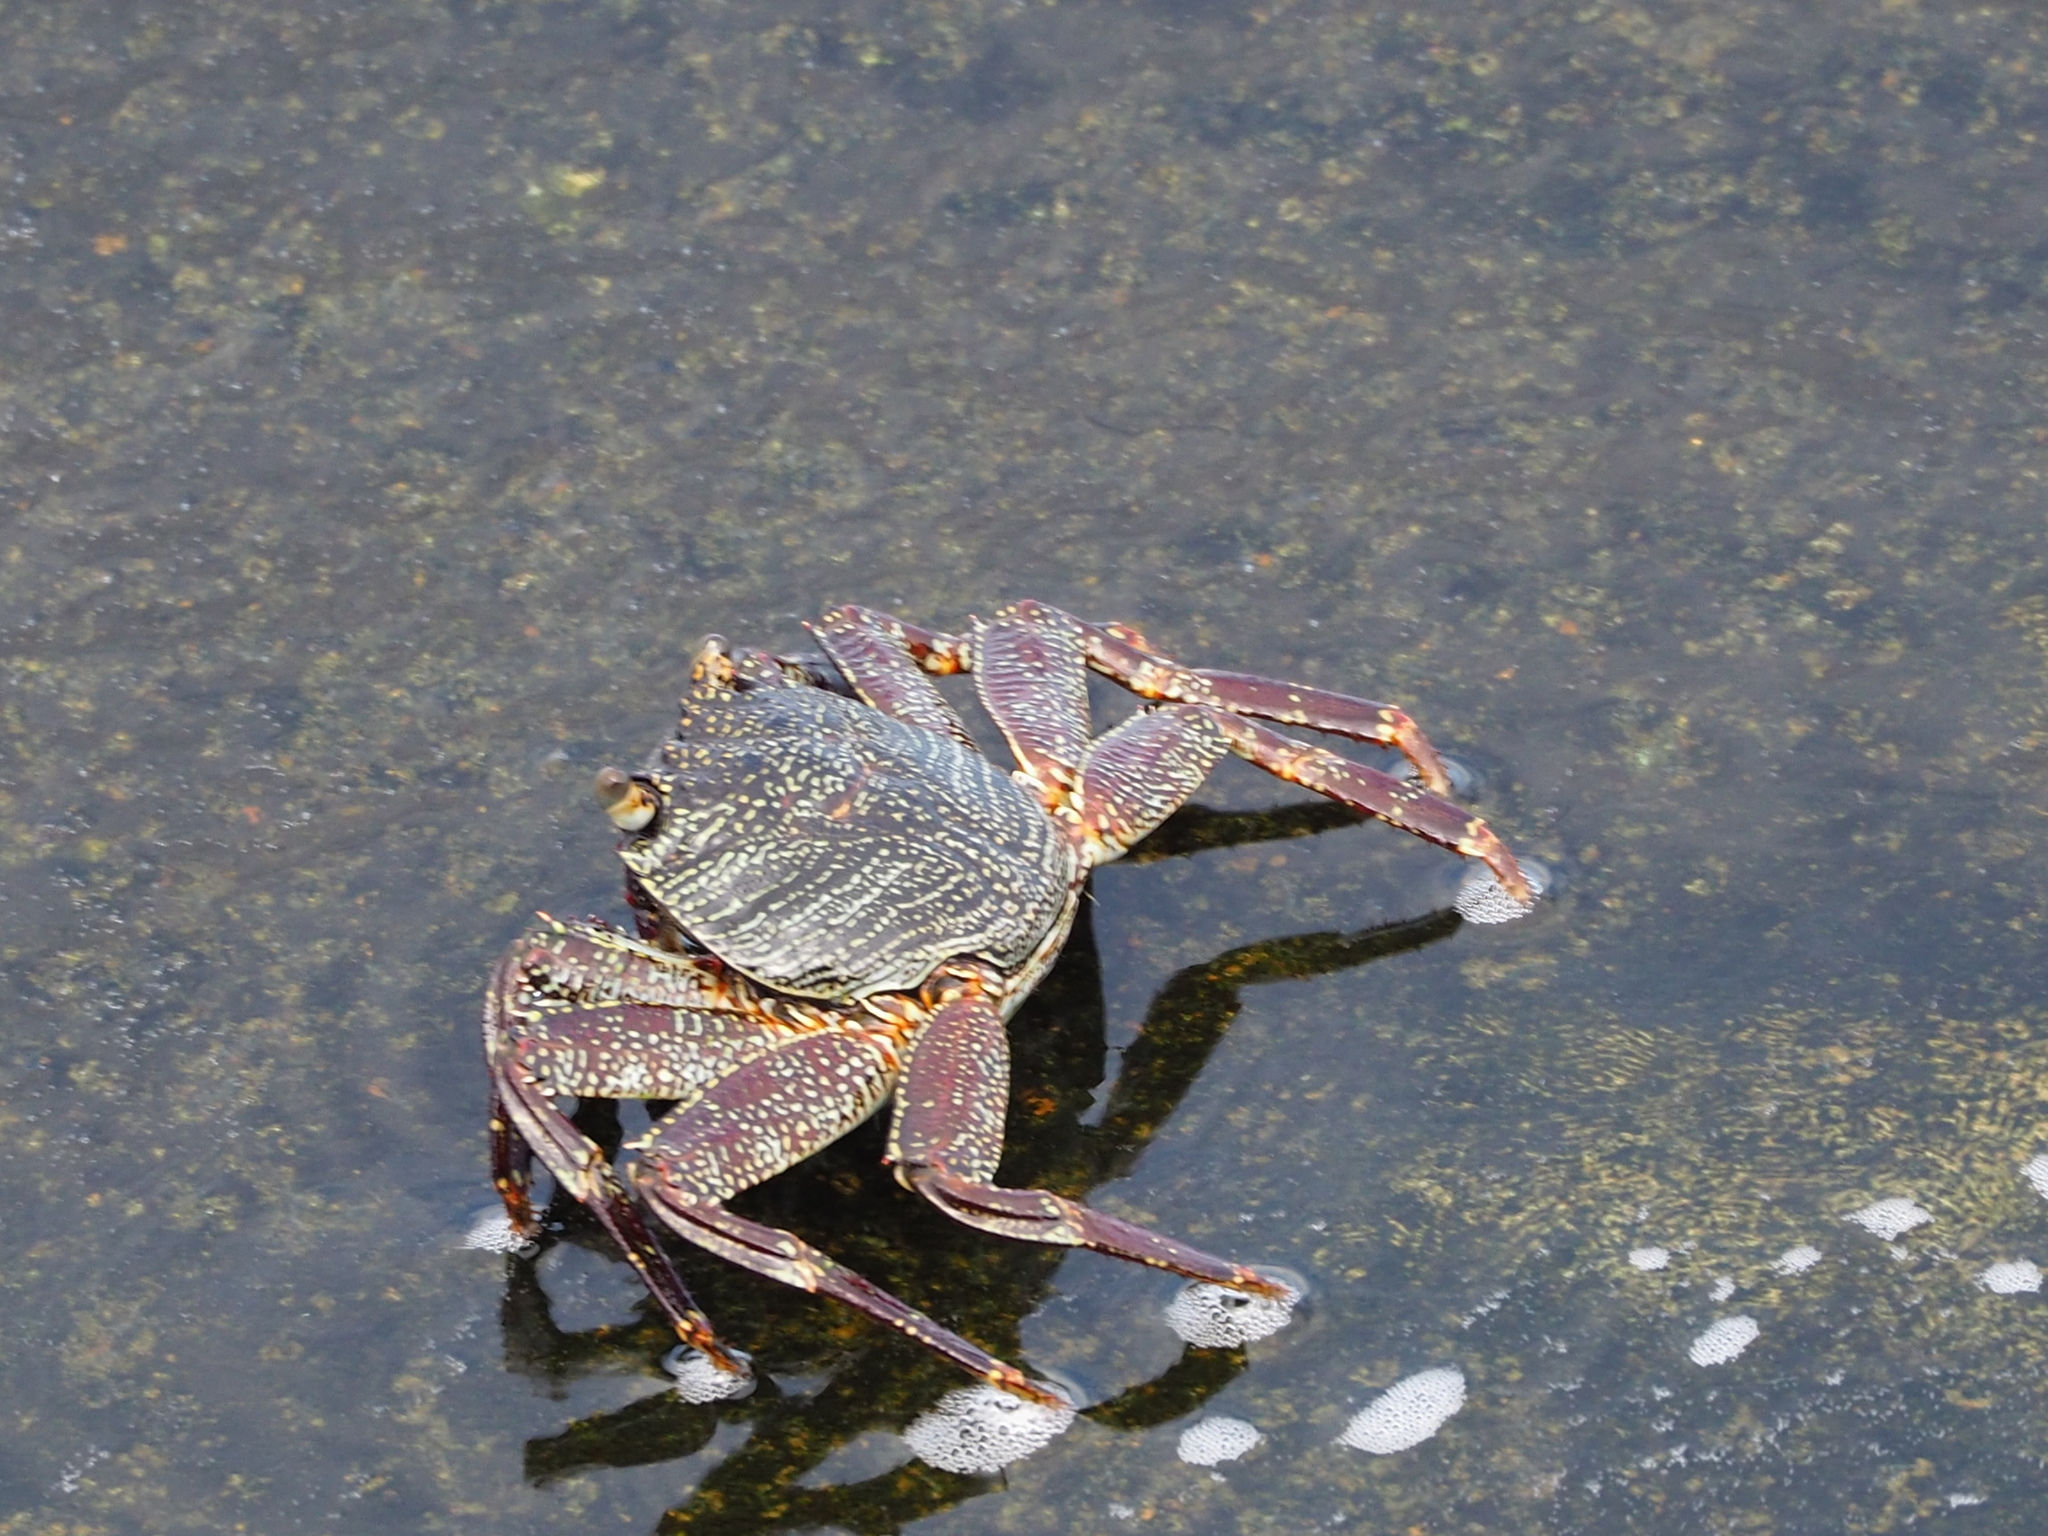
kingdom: Animalia
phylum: Arthropoda
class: Malacostraca
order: Decapoda
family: Grapsidae
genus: Grapsus
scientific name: Grapsus tenuicrustatus
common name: Natal lightfoot crab
